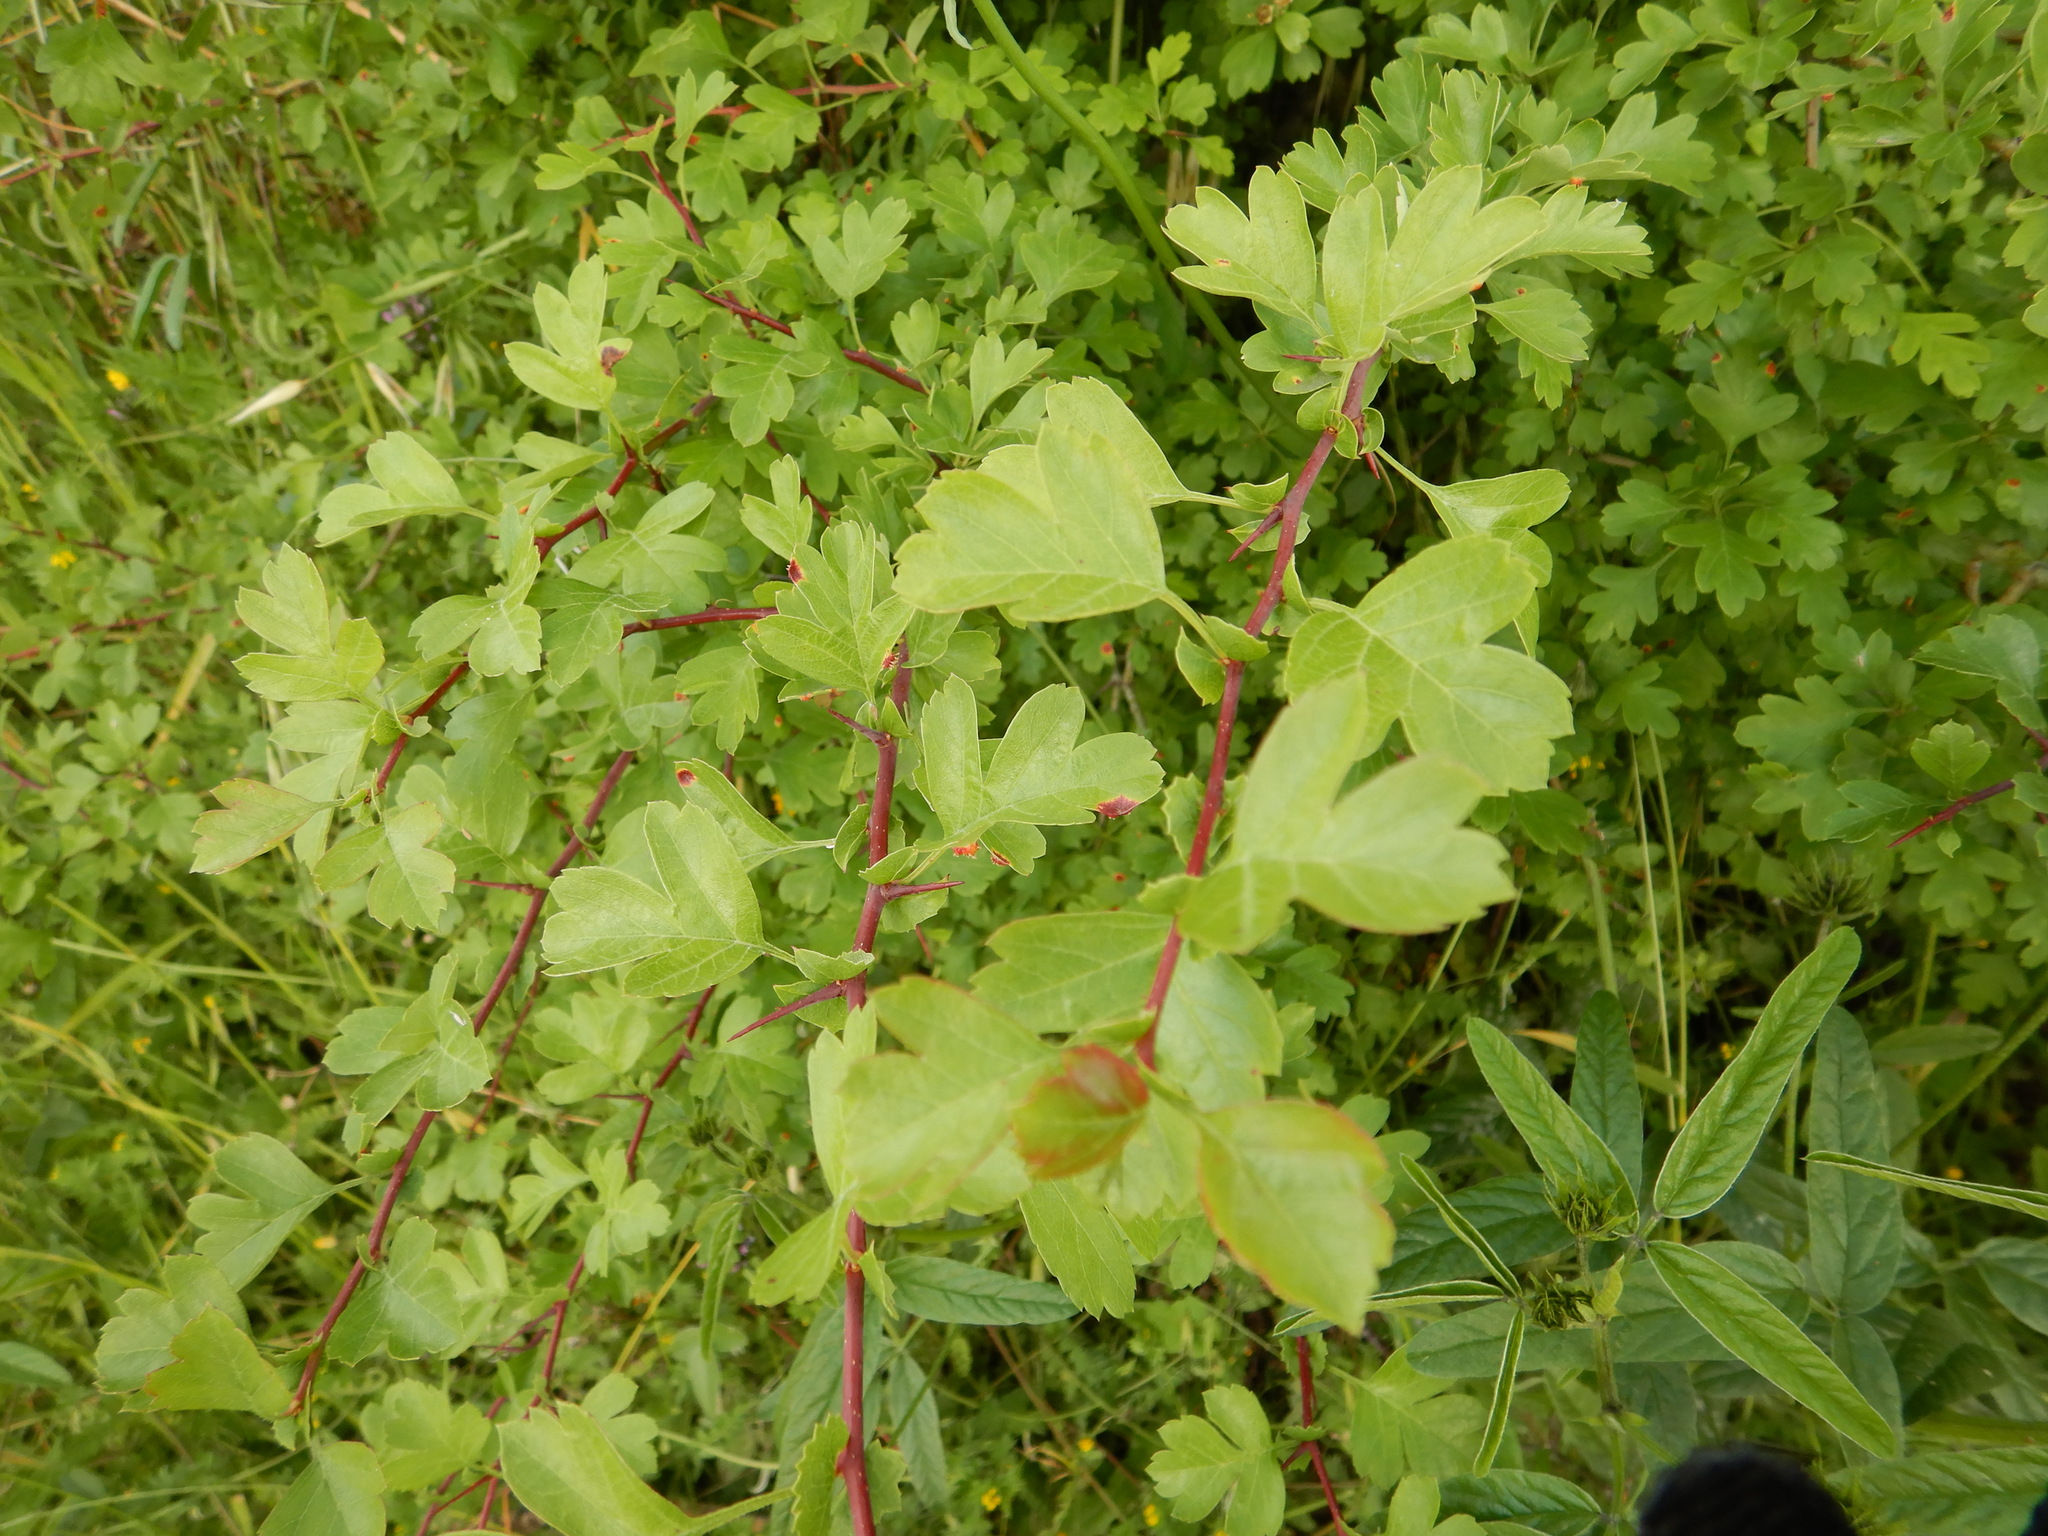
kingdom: Plantae
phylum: Tracheophyta
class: Magnoliopsida
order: Rosales
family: Rosaceae
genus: Crataegus
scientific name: Crataegus monogyna
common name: Hawthorn
